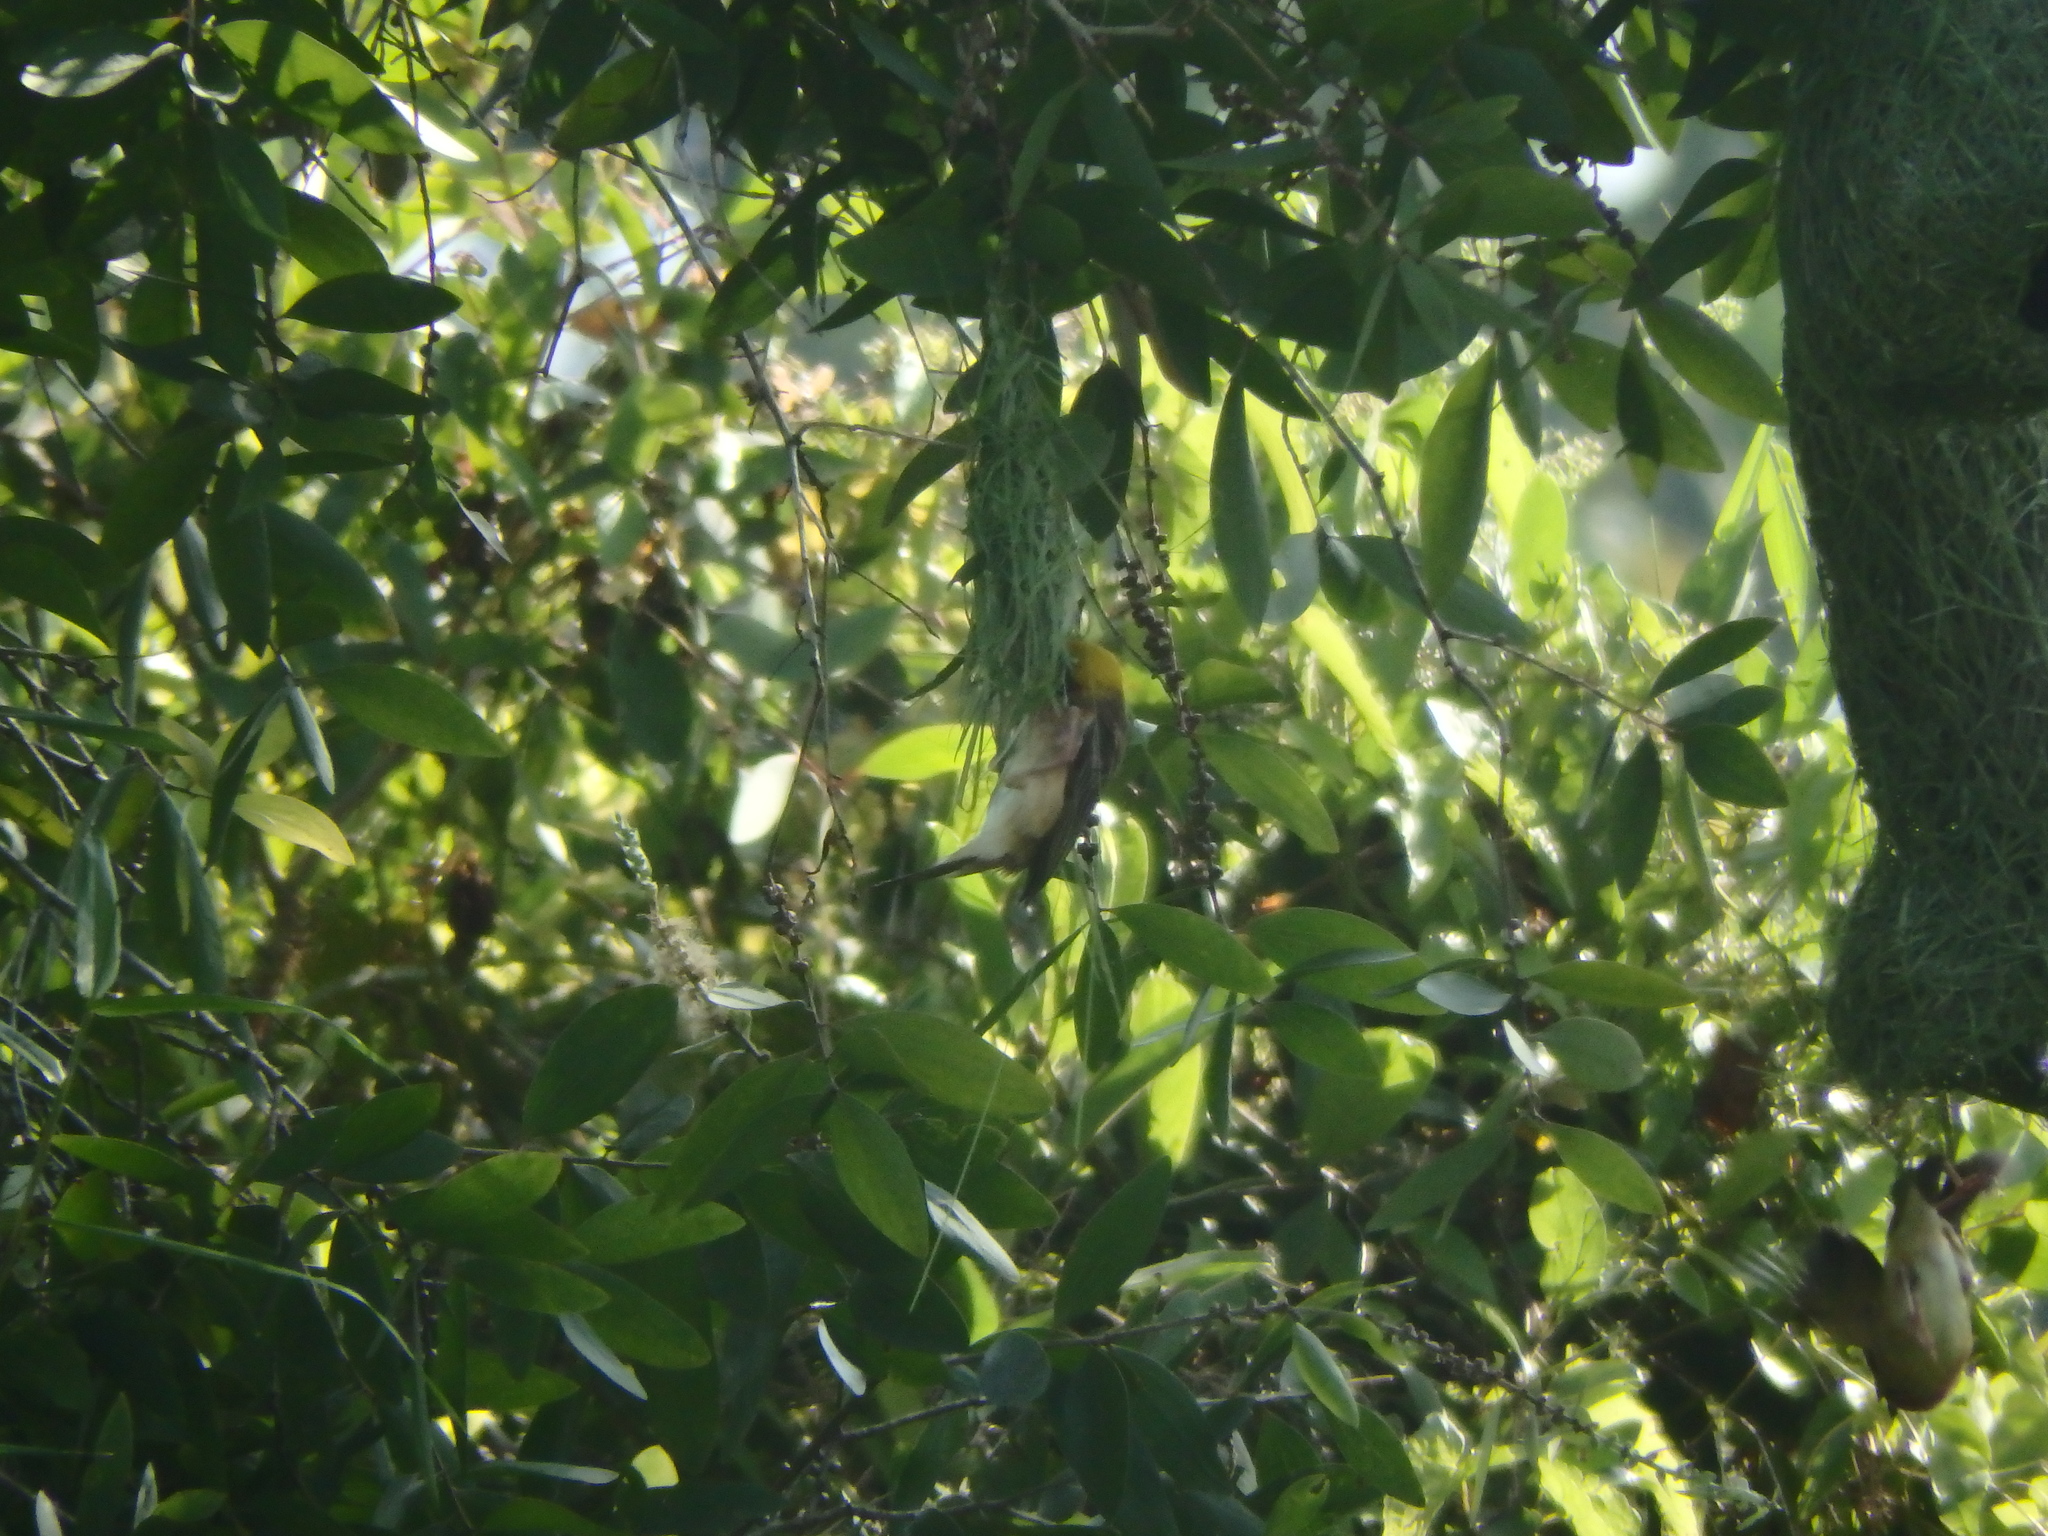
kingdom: Animalia
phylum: Chordata
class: Aves
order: Passeriformes
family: Ploceidae
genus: Ploceus
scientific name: Ploceus philippinus
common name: Baya weaver
